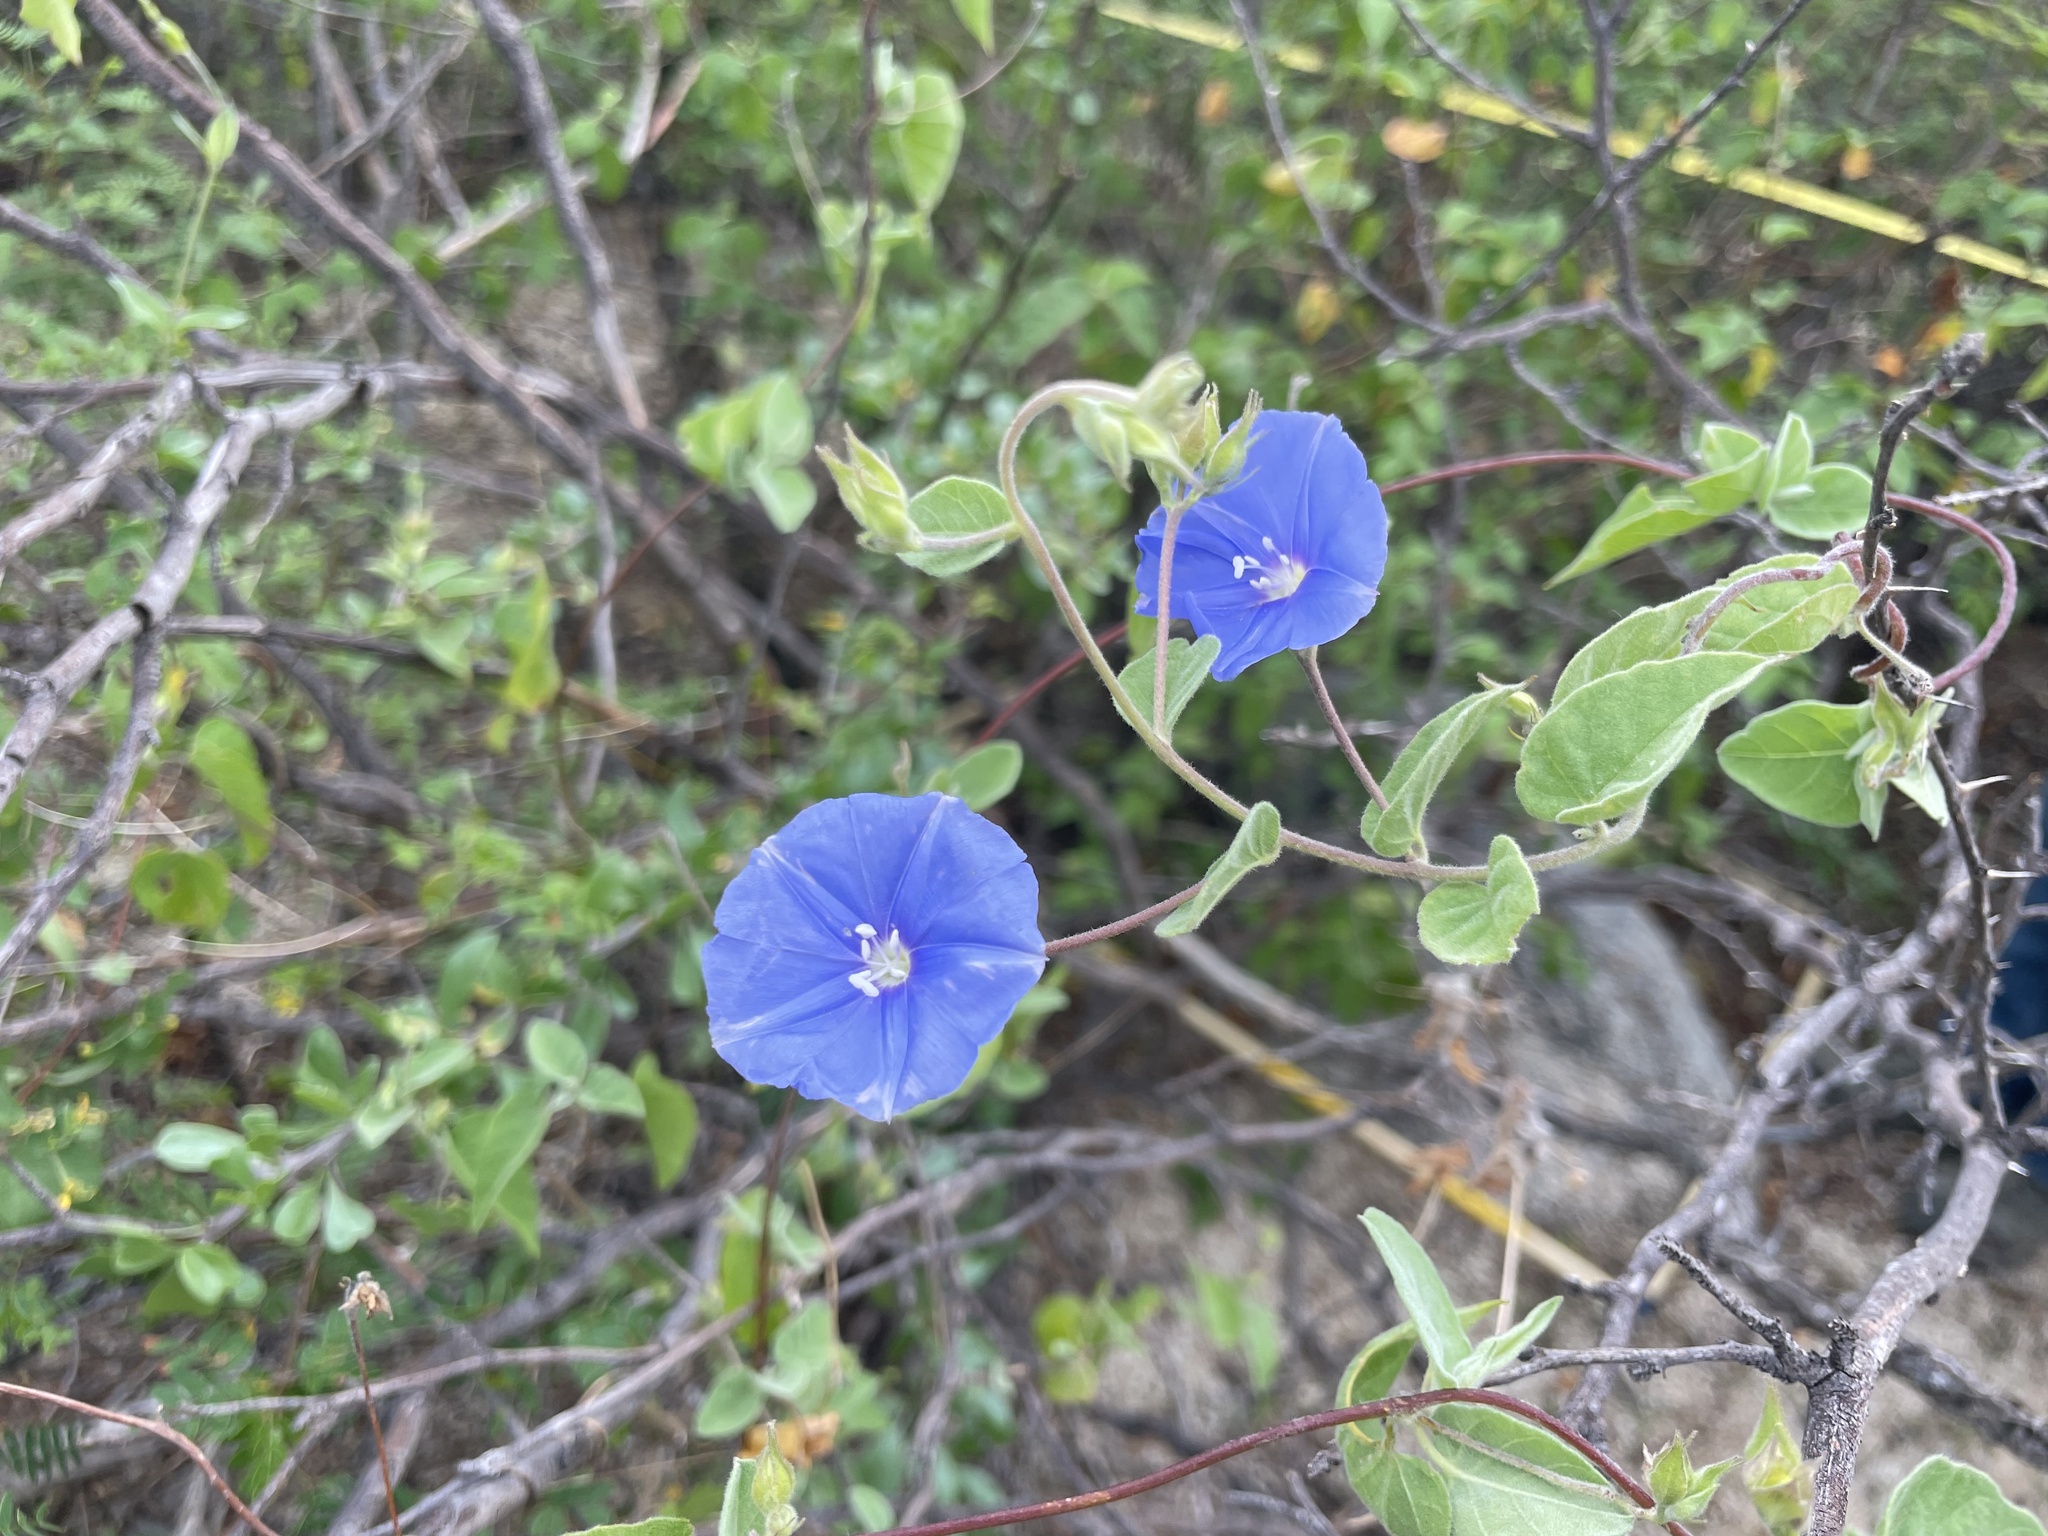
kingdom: Plantae
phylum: Tracheophyta
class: Magnoliopsida
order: Solanales
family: Convolvulaceae
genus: Jacquemontia
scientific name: Jacquemontia abutiloides
